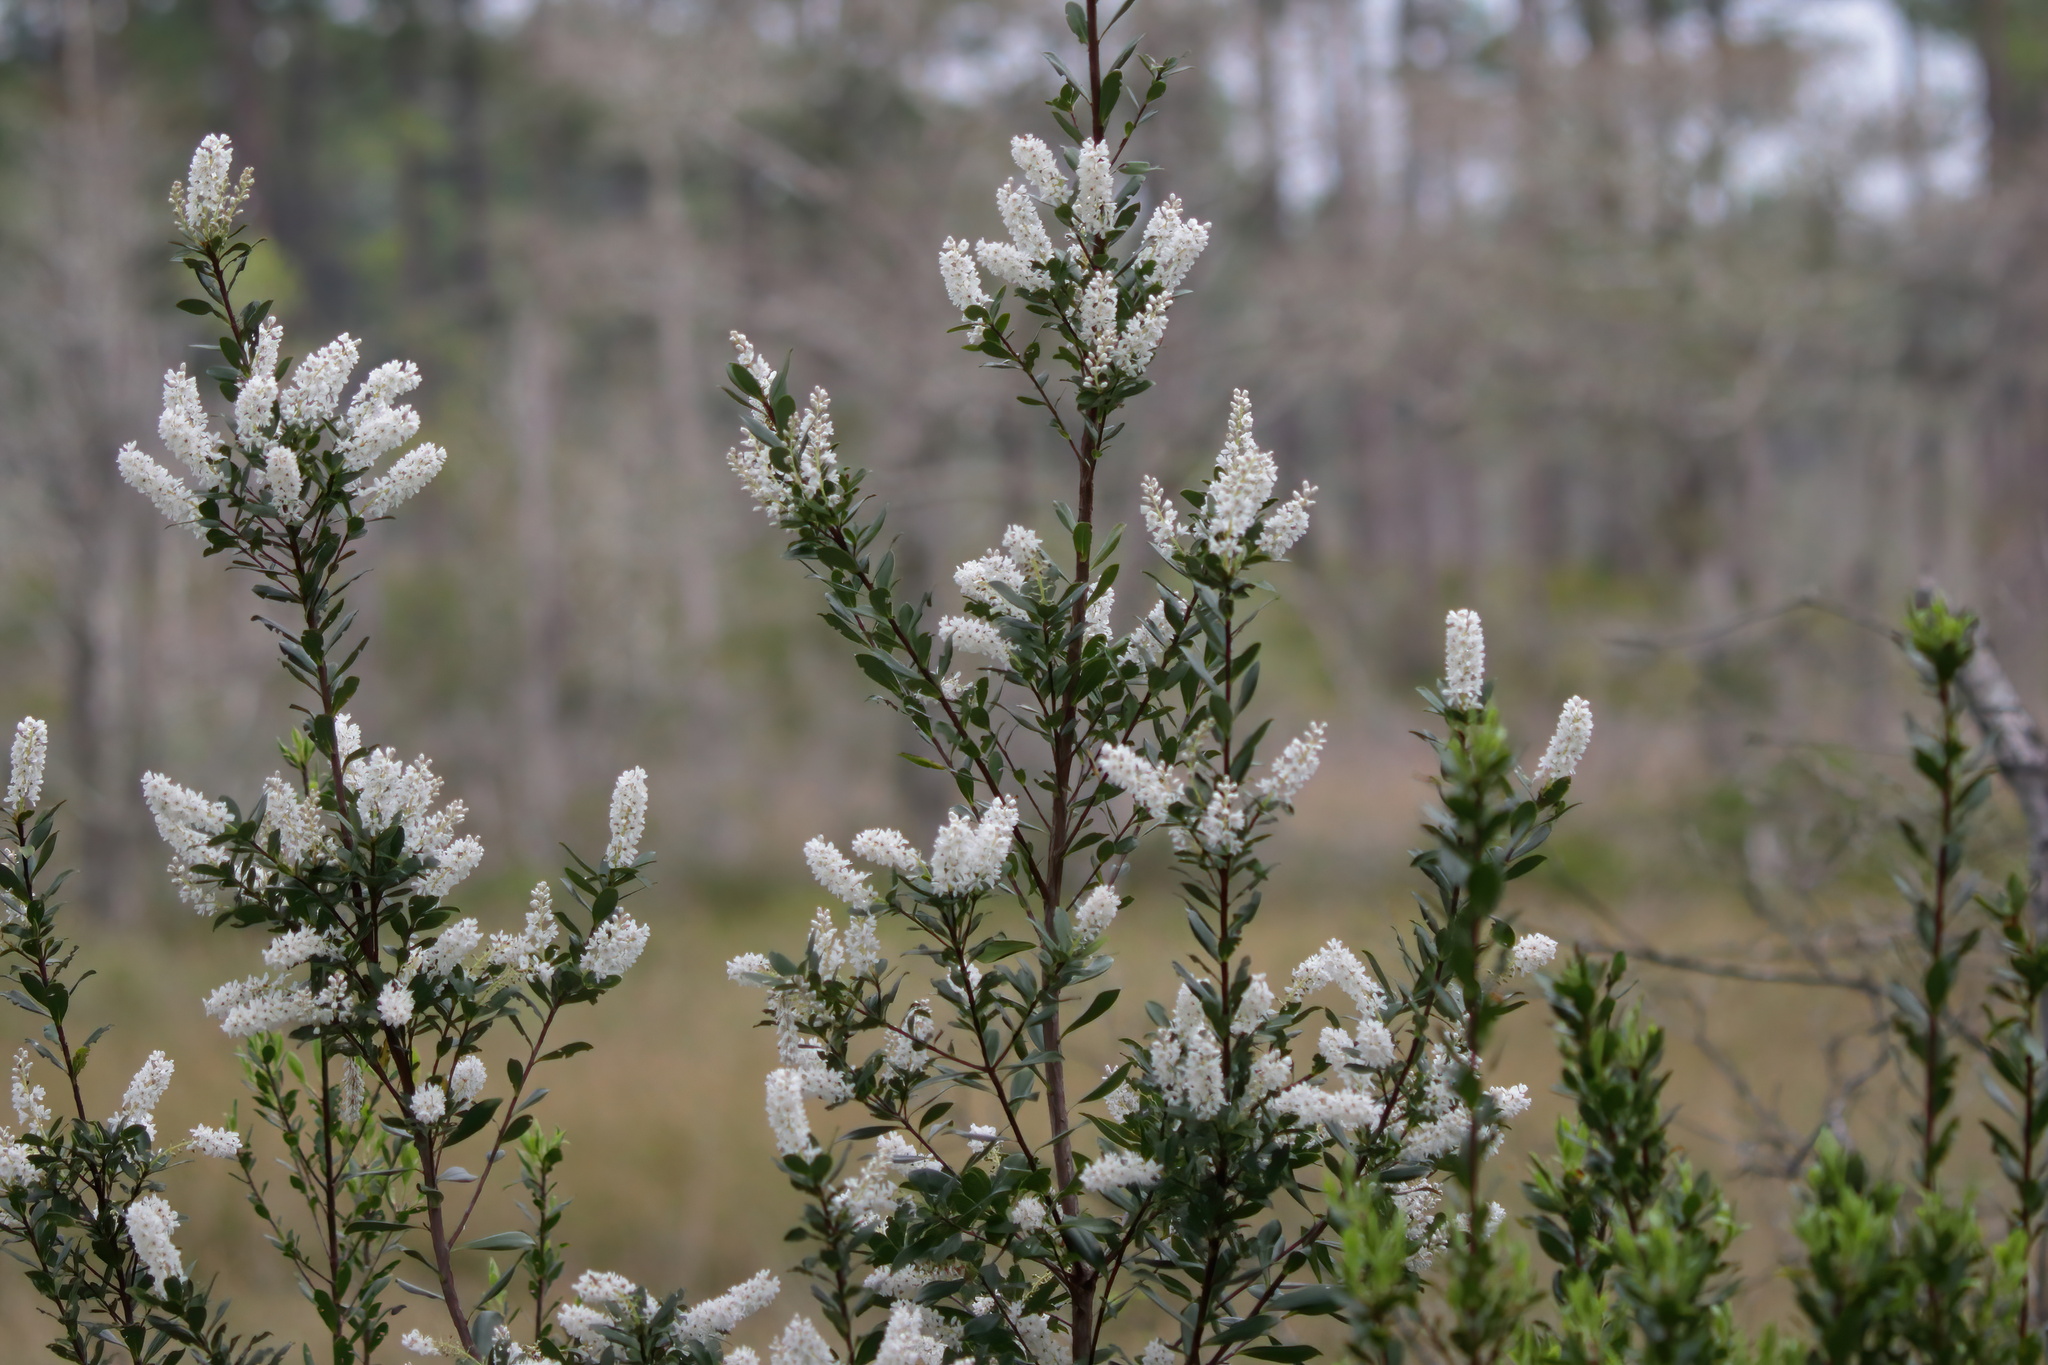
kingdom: Plantae
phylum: Tracheophyta
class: Magnoliopsida
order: Ericales
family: Cyrillaceae
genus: Cliftonia
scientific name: Cliftonia monophylla
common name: Titi
